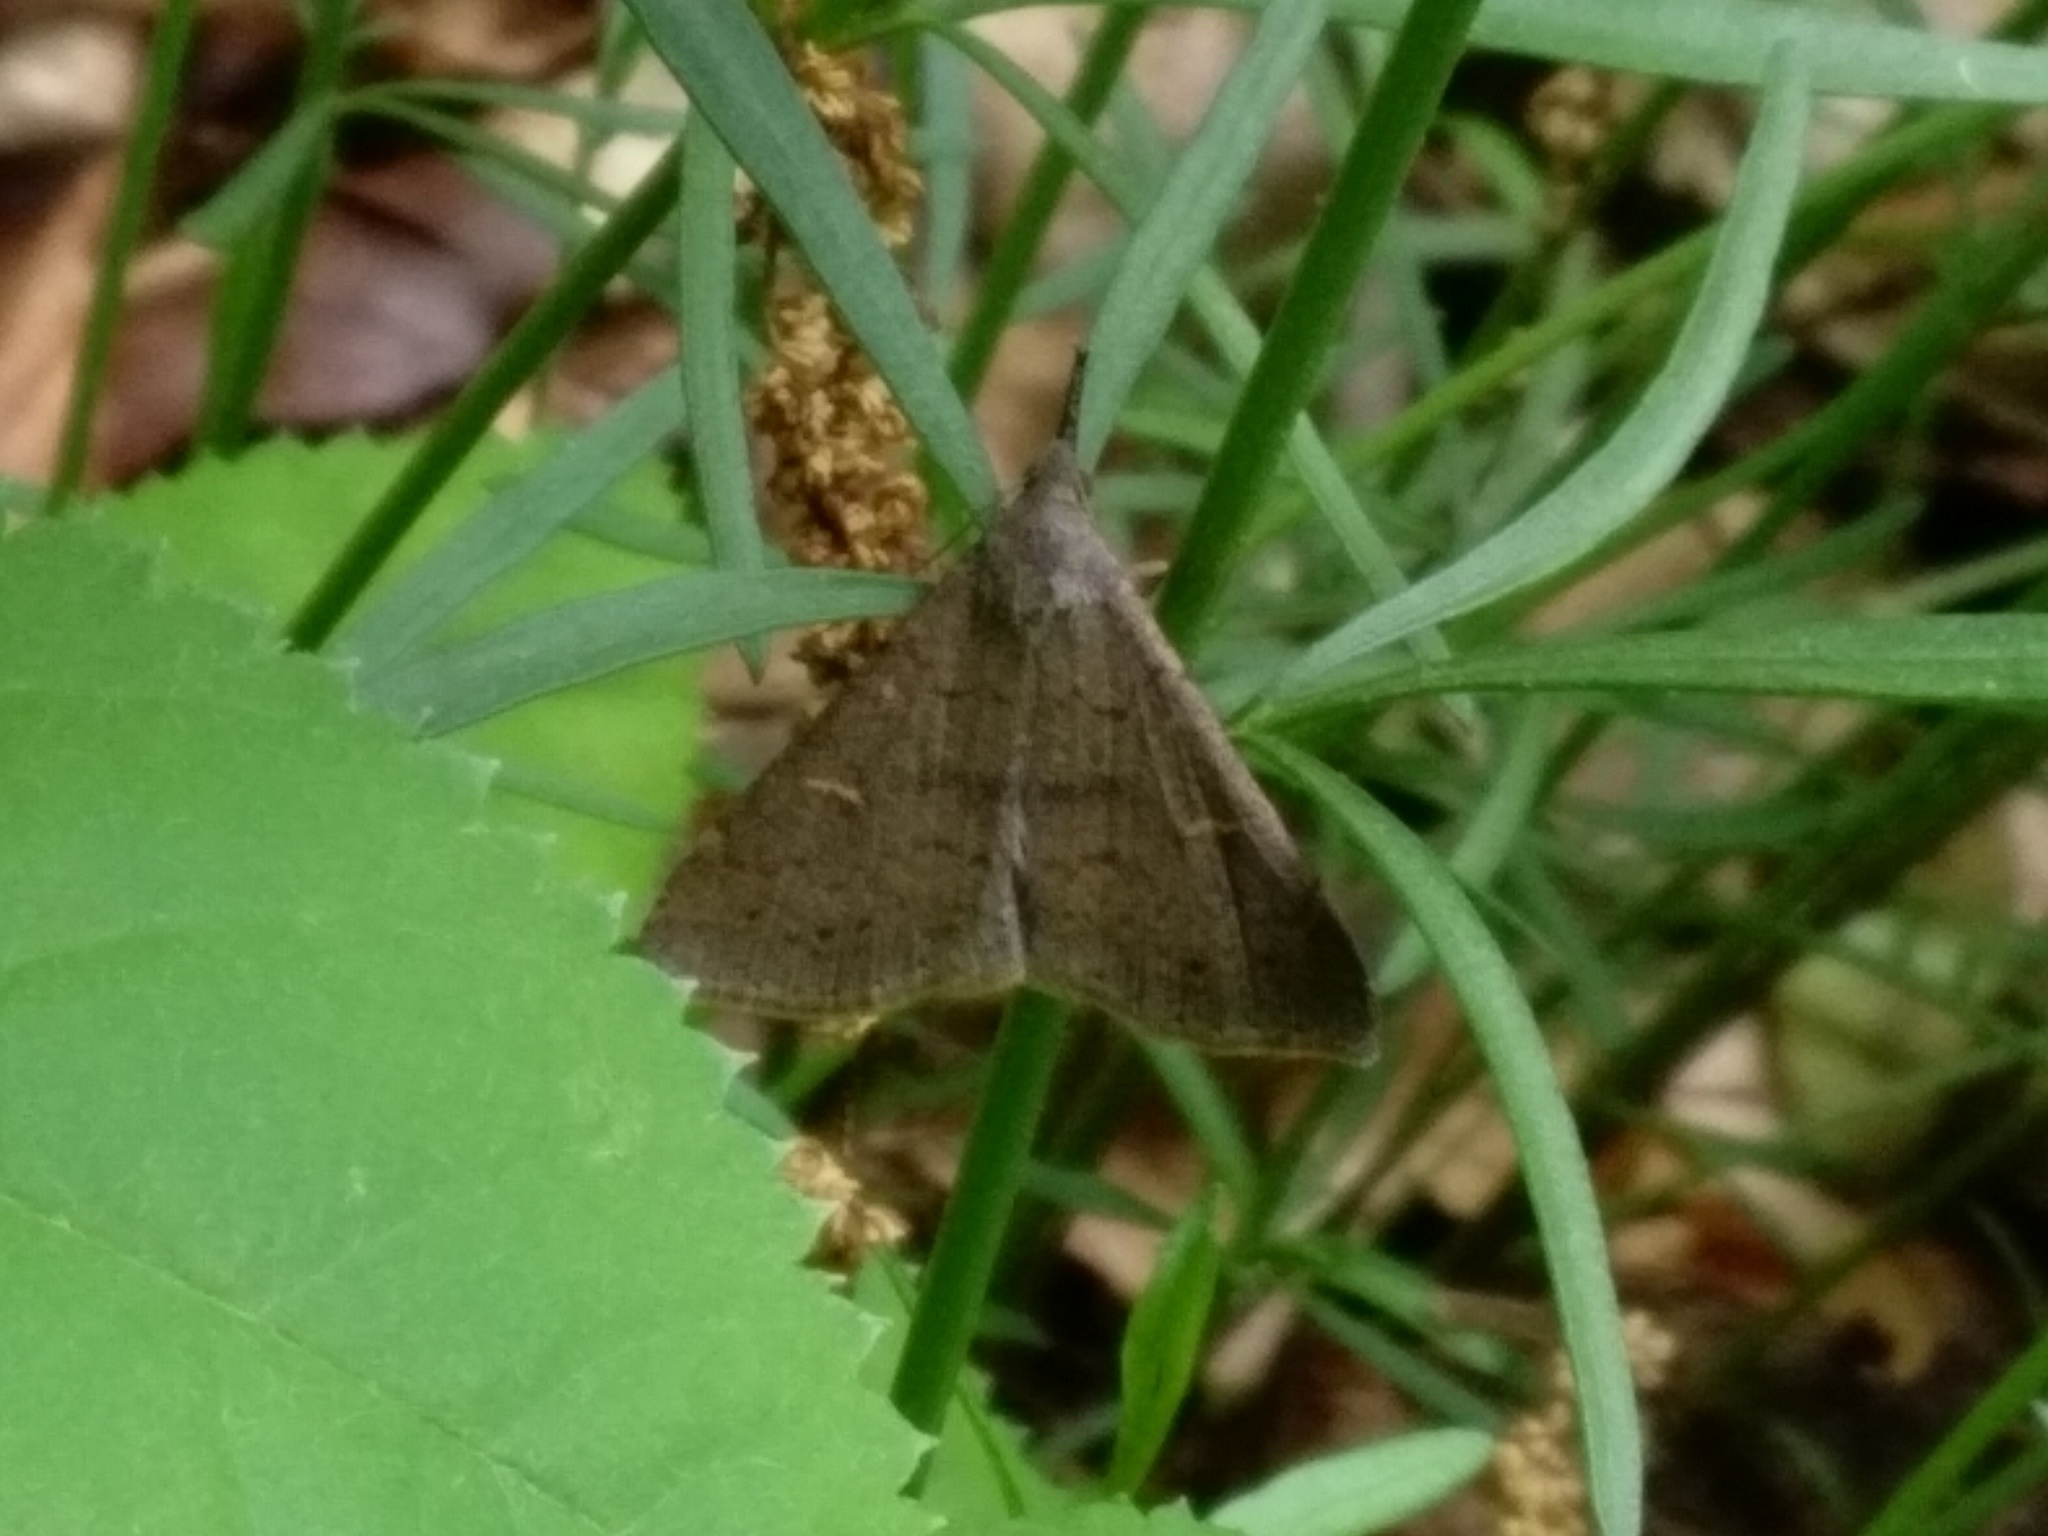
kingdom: Animalia
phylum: Arthropoda
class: Insecta
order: Lepidoptera
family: Erebidae
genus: Renia
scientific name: Renia adspergillus
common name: Speckled renia moth
